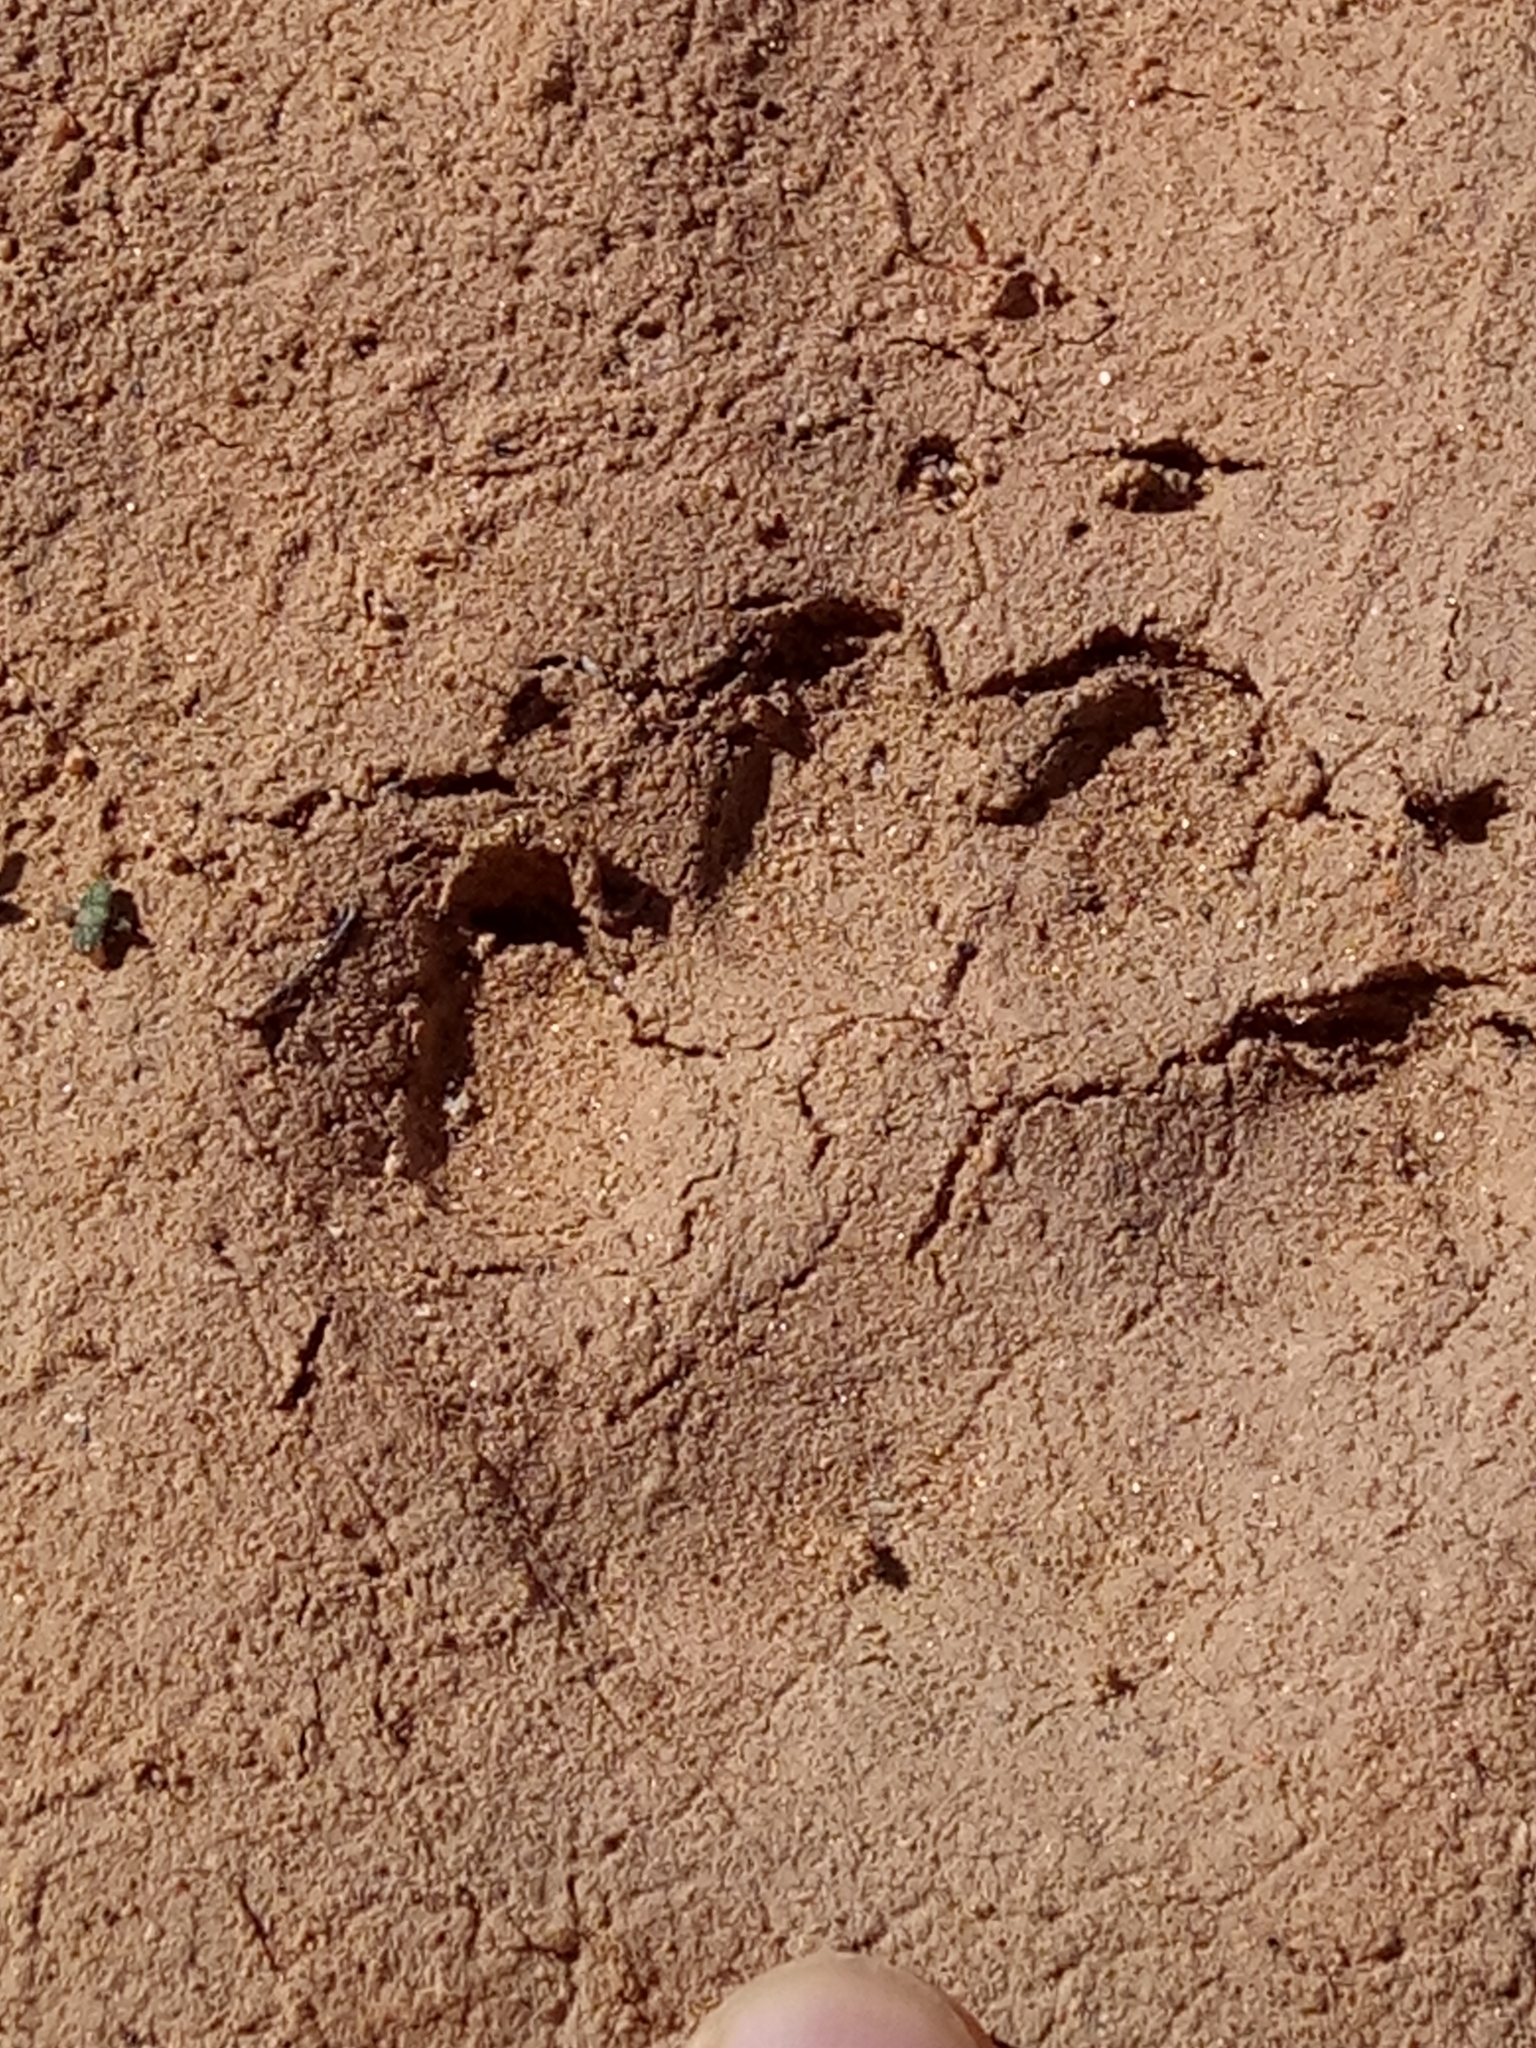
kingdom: Animalia
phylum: Chordata
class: Mammalia
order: Carnivora
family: Canidae
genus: Canis
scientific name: Canis lupaster
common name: African golden wolf
